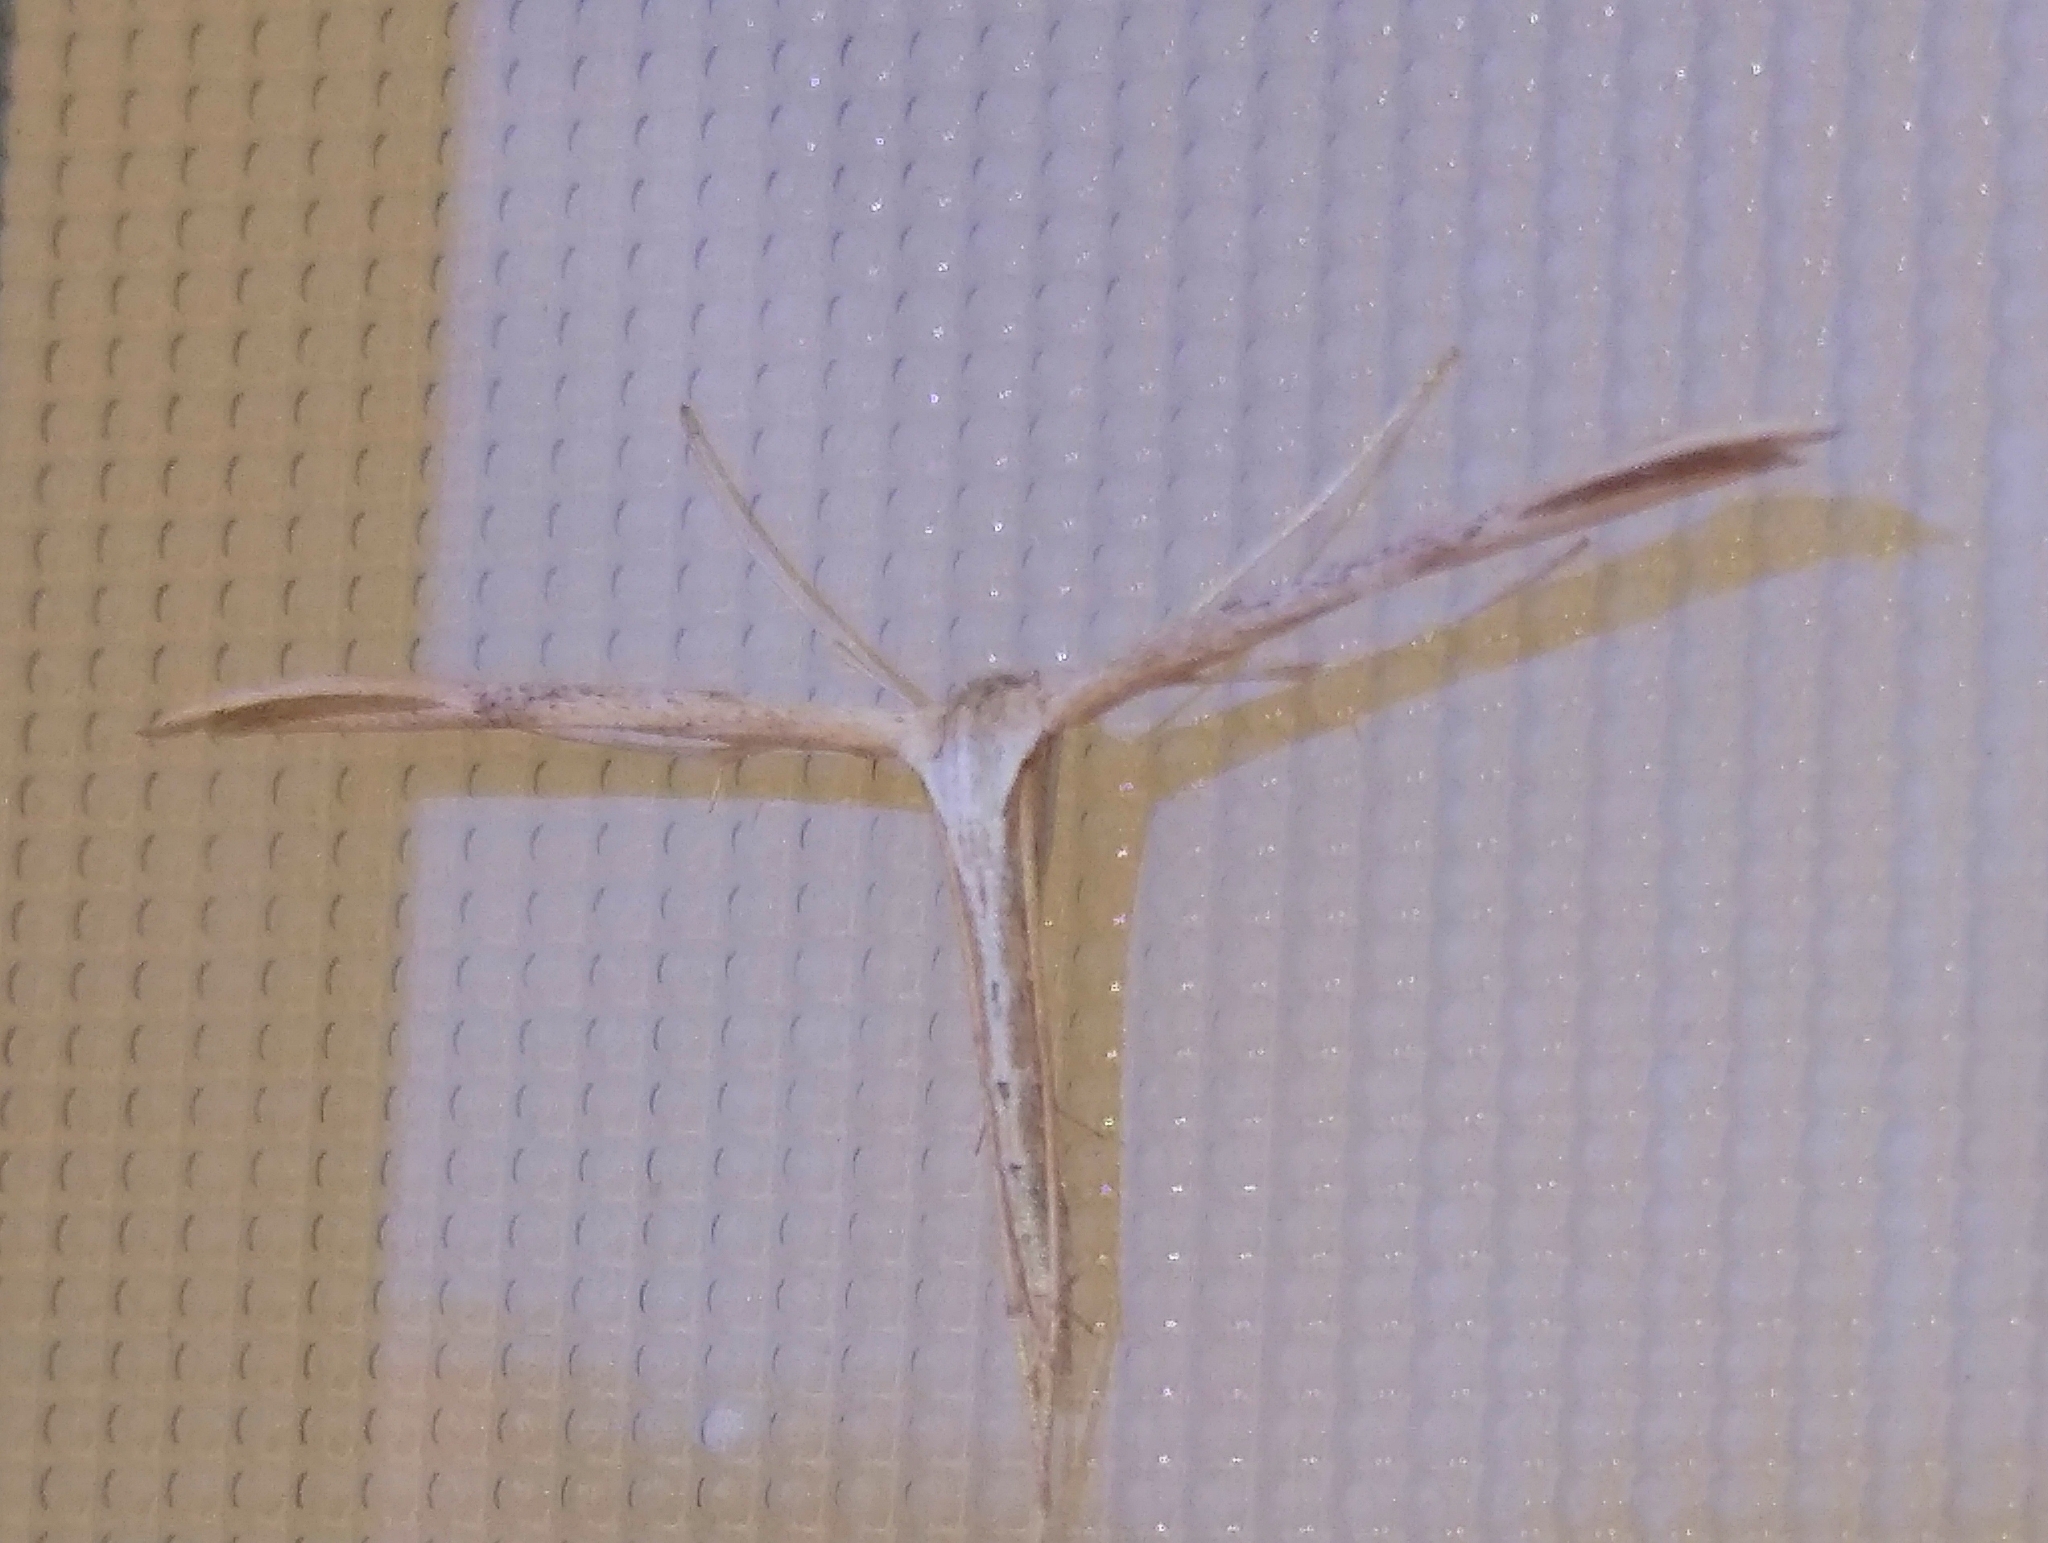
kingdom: Animalia
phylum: Arthropoda
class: Insecta
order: Lepidoptera
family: Pterophoridae
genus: Emmelina
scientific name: Emmelina monodactyla
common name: Common plume
